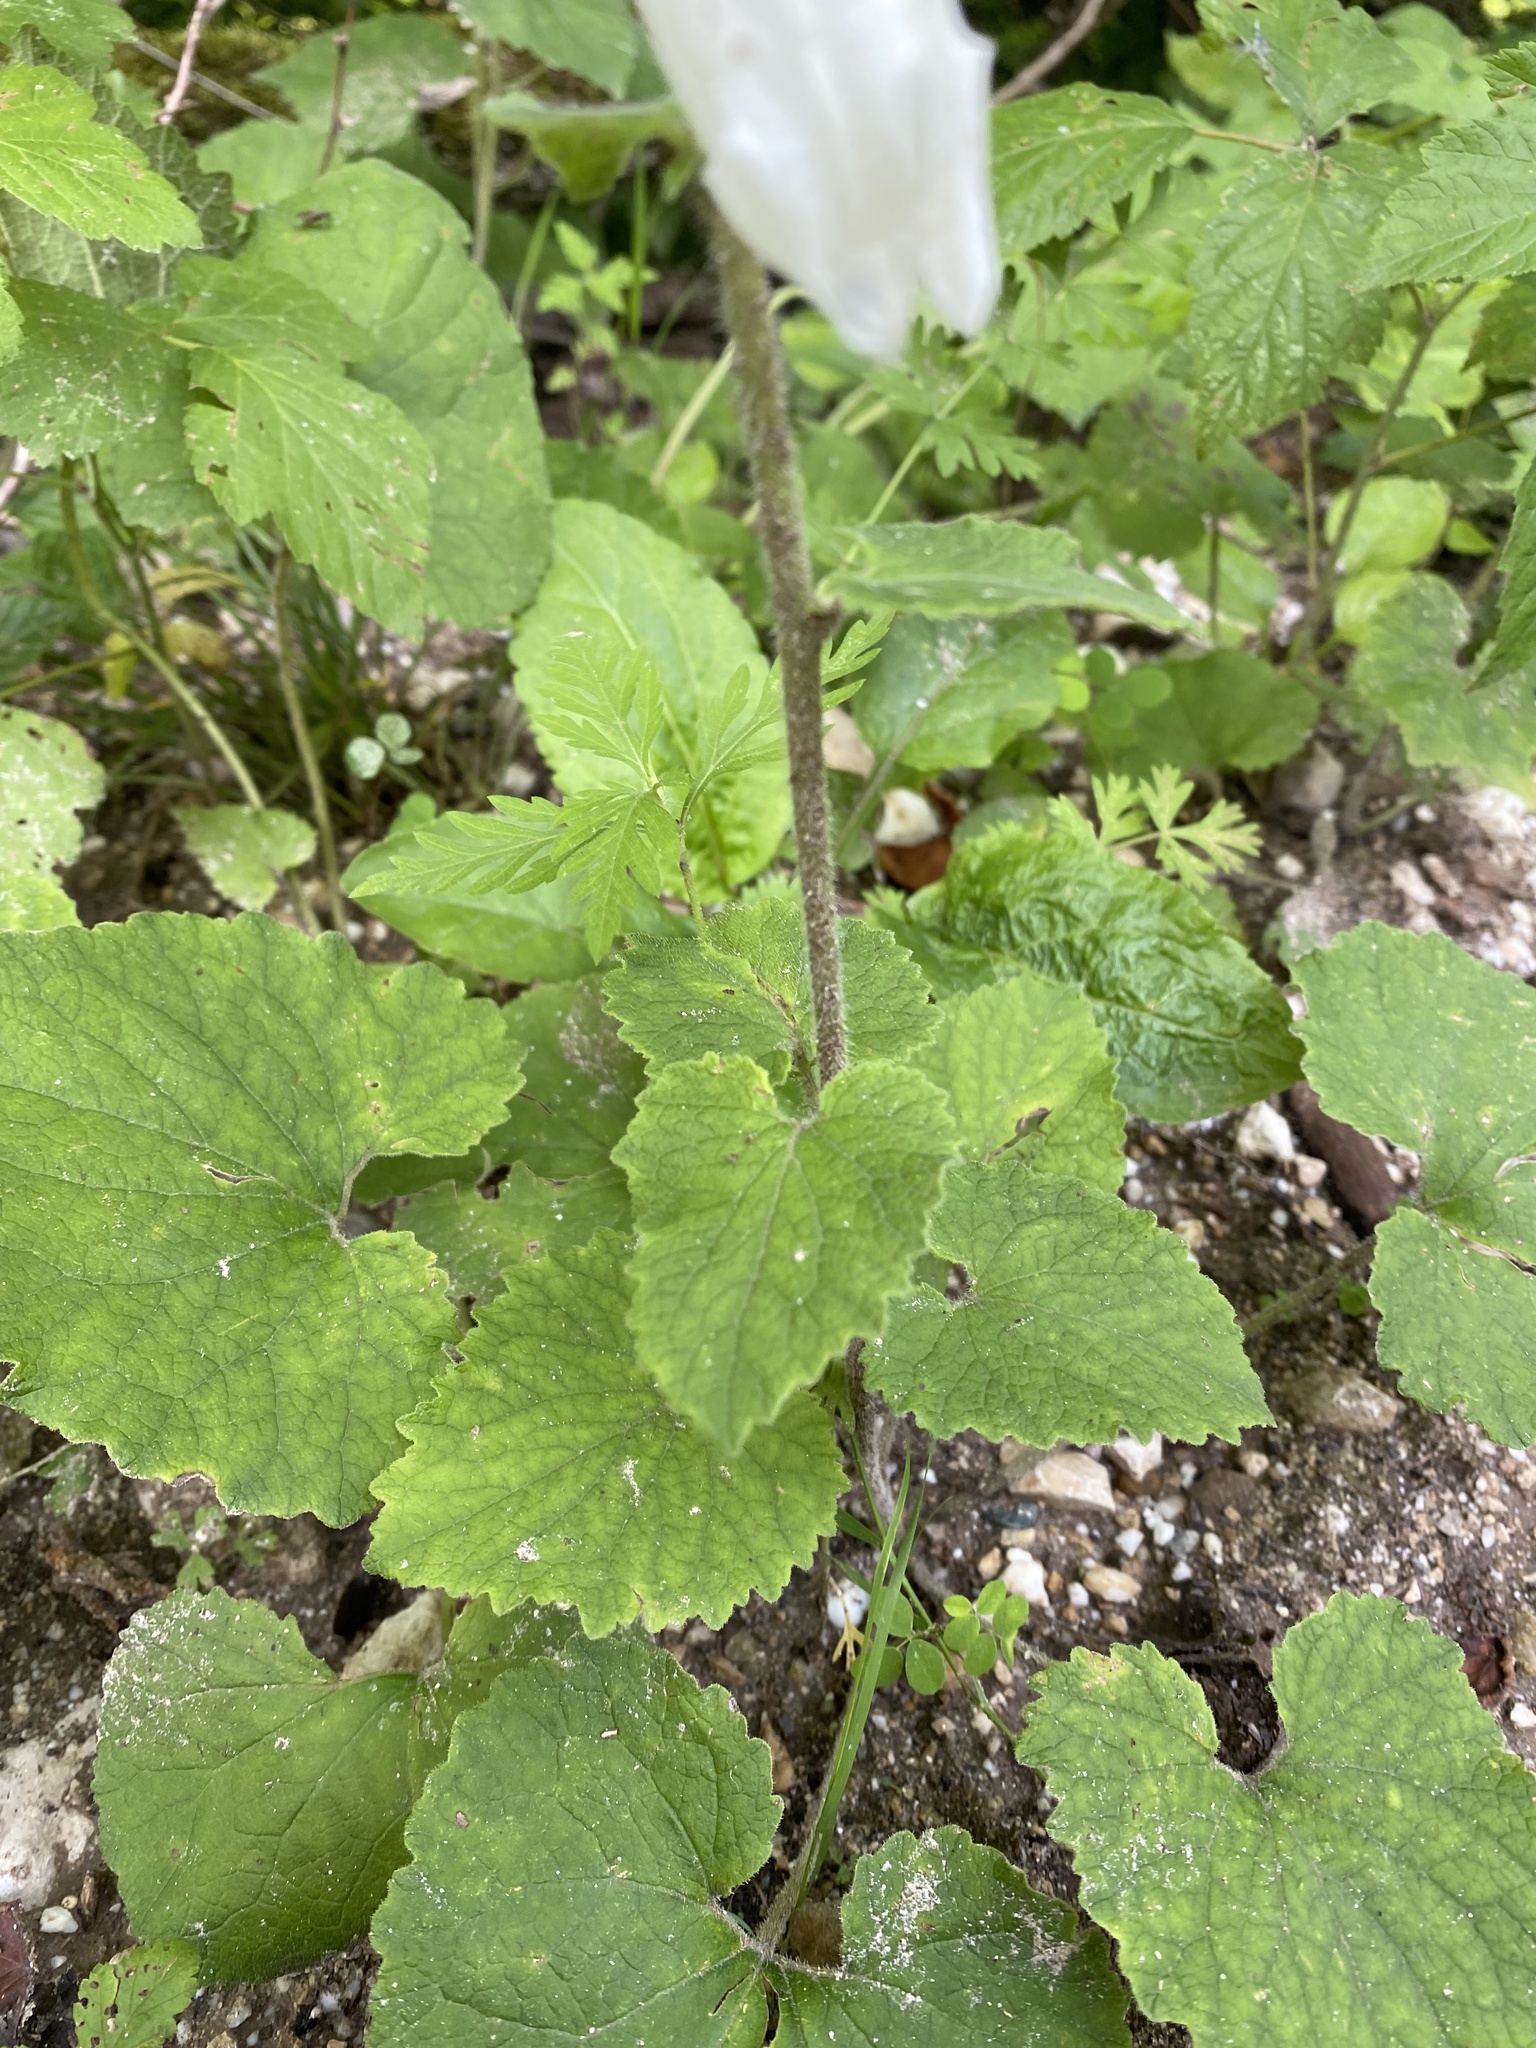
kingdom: Plantae
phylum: Tracheophyta
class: Magnoliopsida
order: Asterales
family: Campanulaceae
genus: Campanula
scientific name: Campanula alliariifolia
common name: Cornish bellflower
